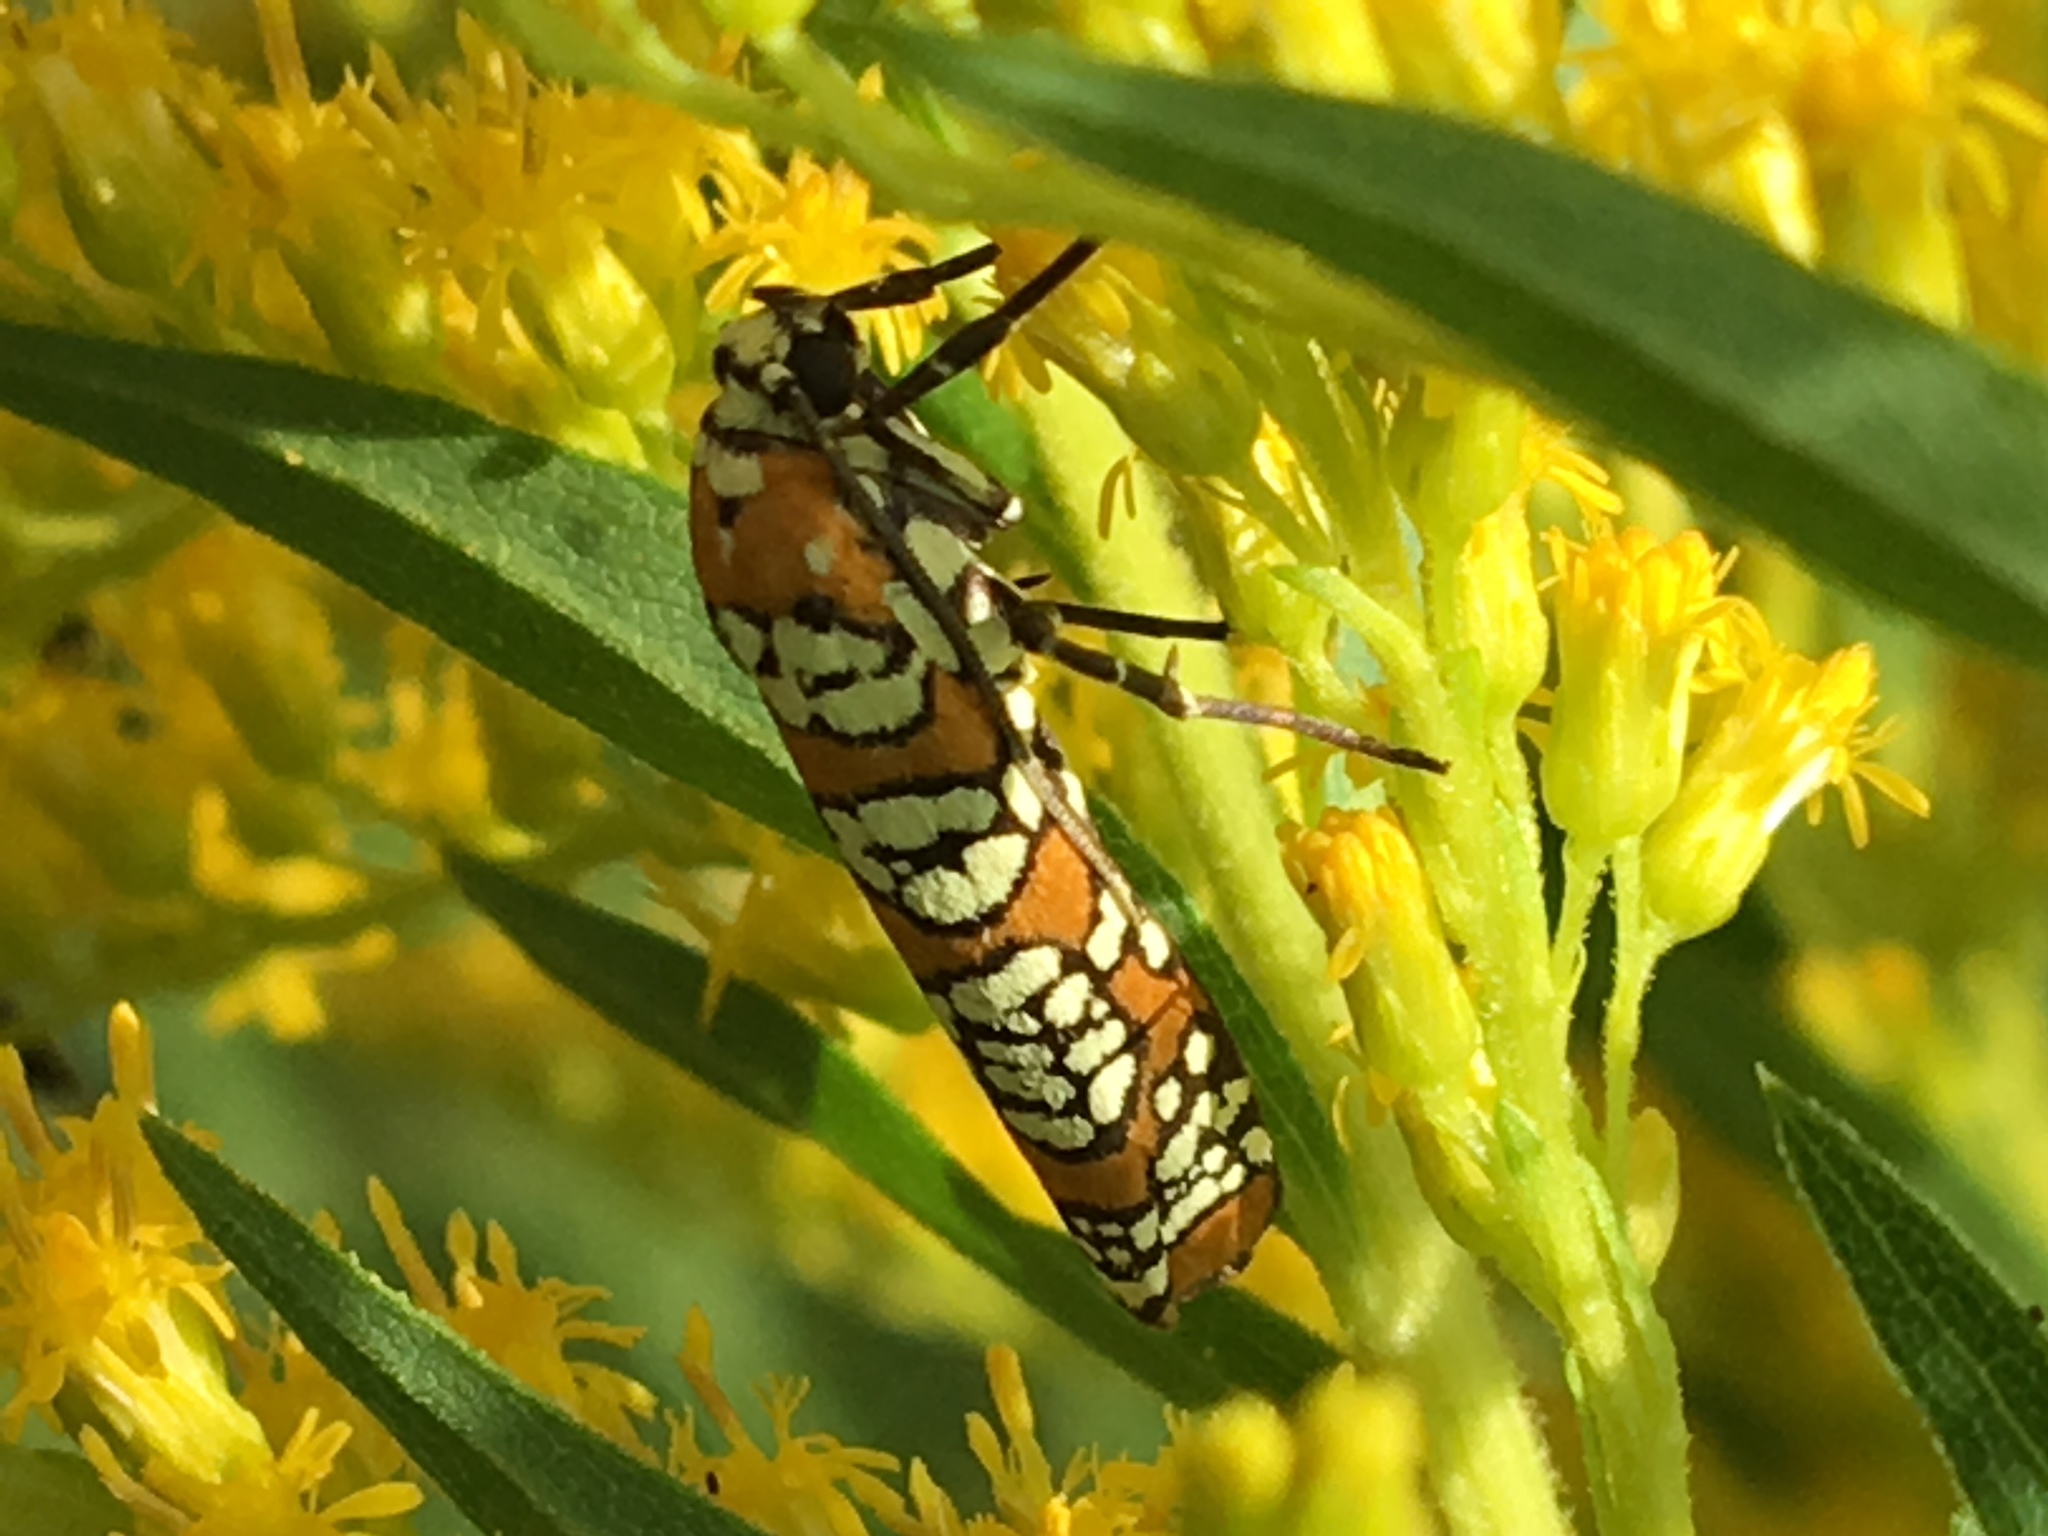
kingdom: Animalia
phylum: Arthropoda
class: Insecta
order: Lepidoptera
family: Attevidae
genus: Atteva
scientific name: Atteva punctella
